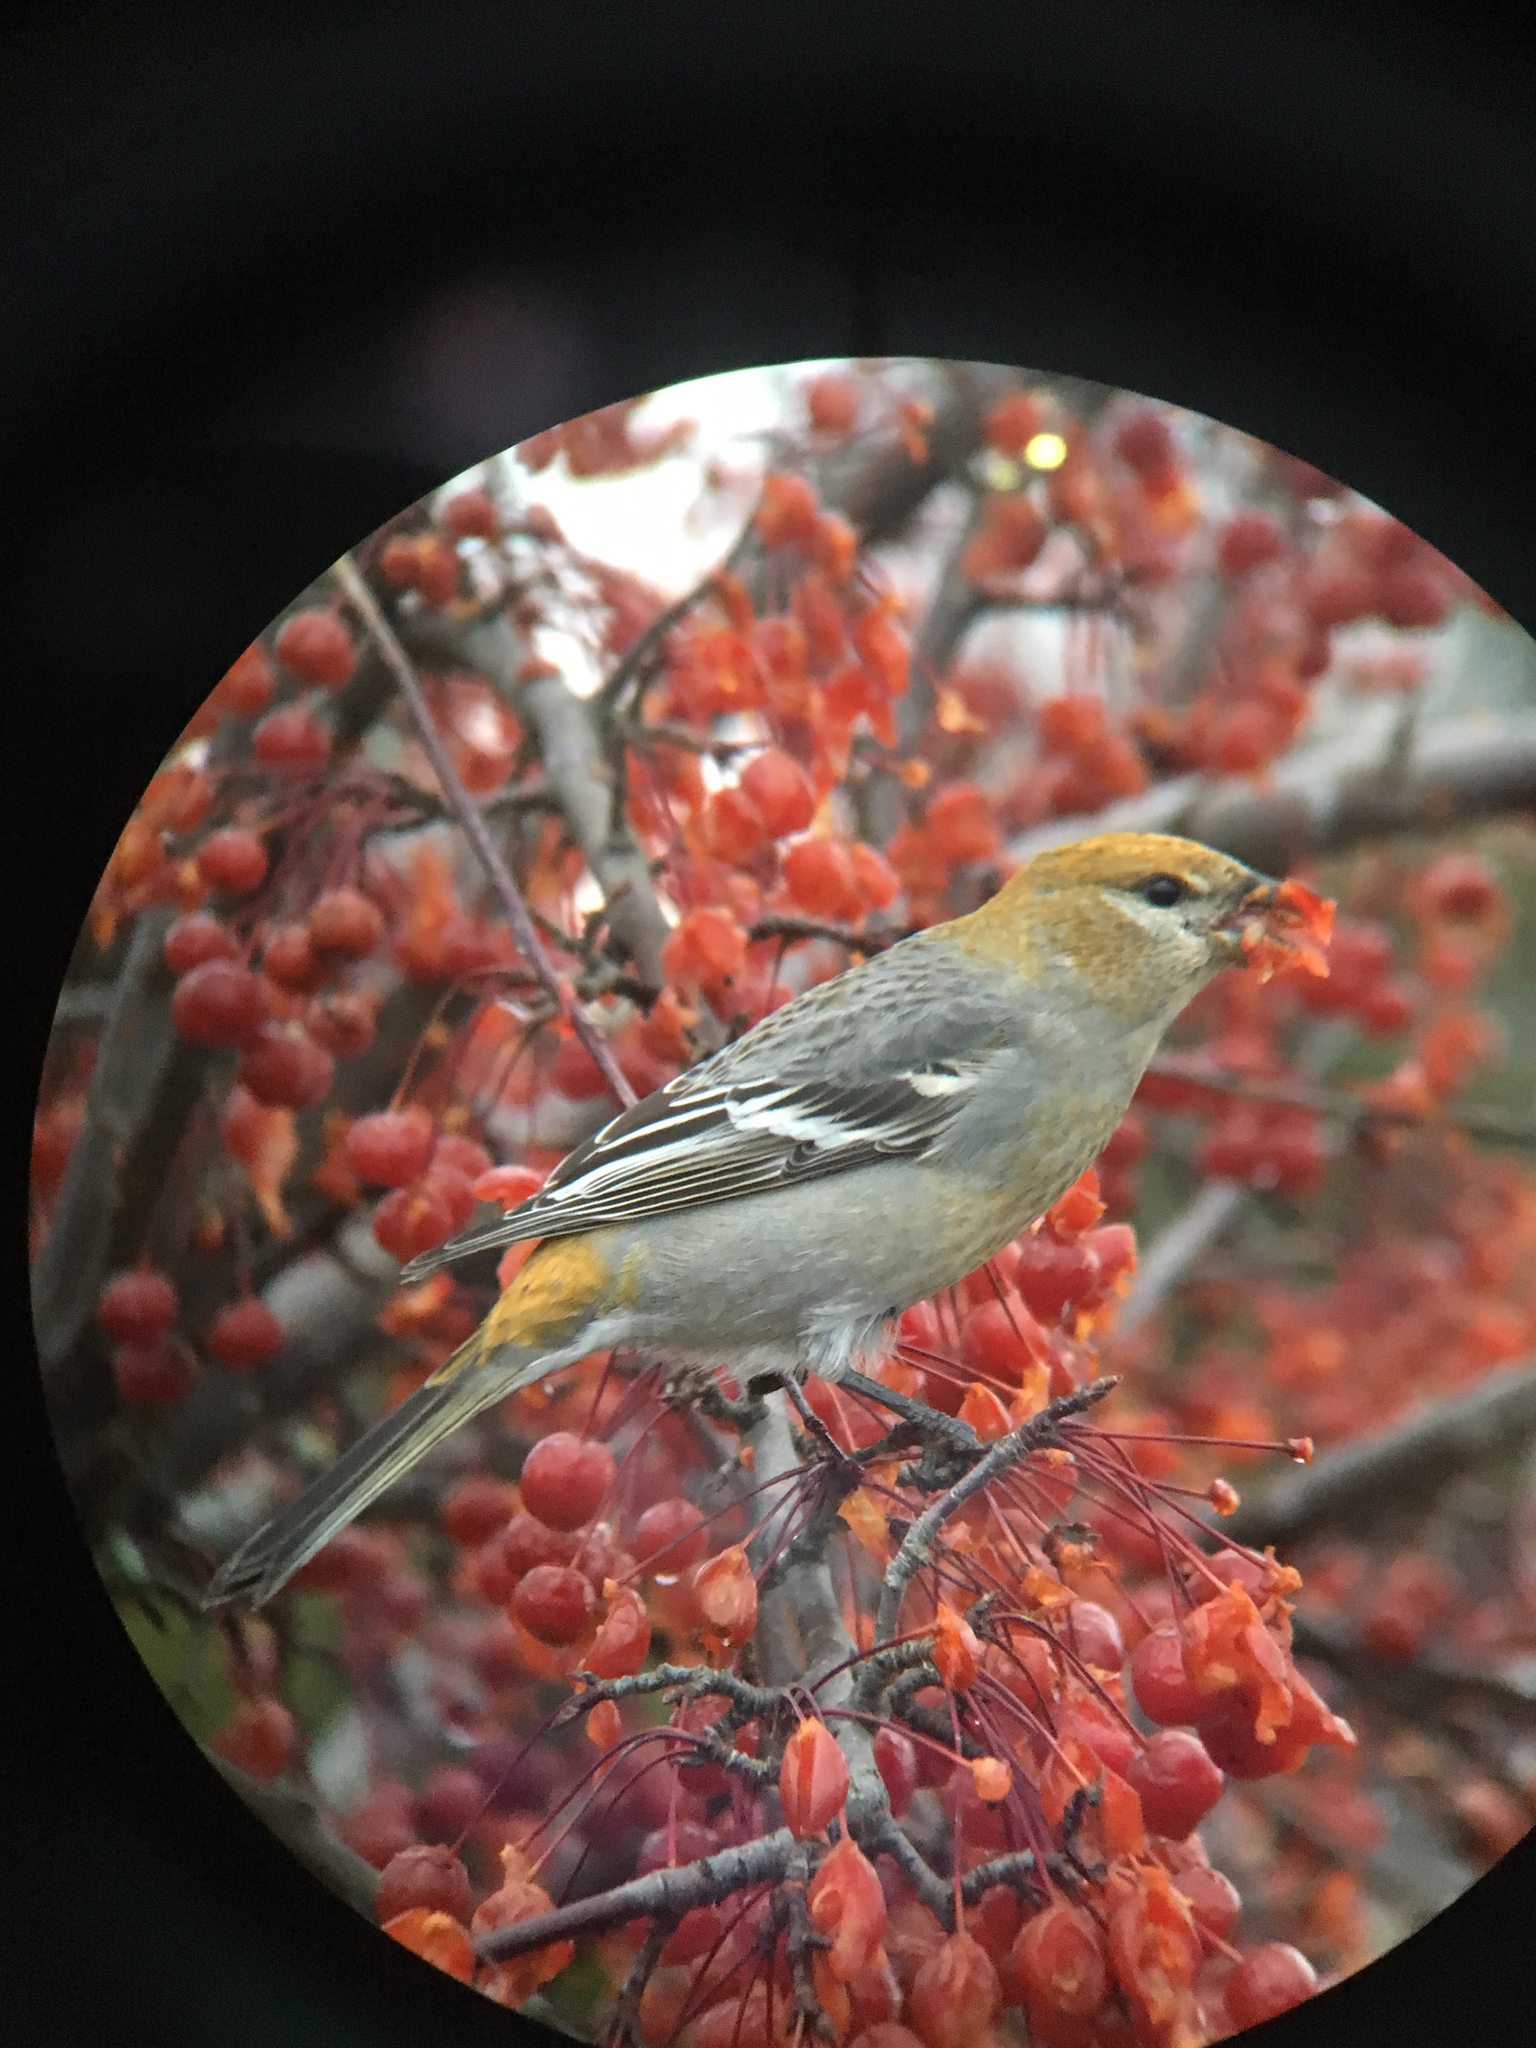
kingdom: Animalia
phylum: Chordata
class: Aves
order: Passeriformes
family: Fringillidae
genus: Pinicola
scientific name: Pinicola enucleator
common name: Pine grosbeak
